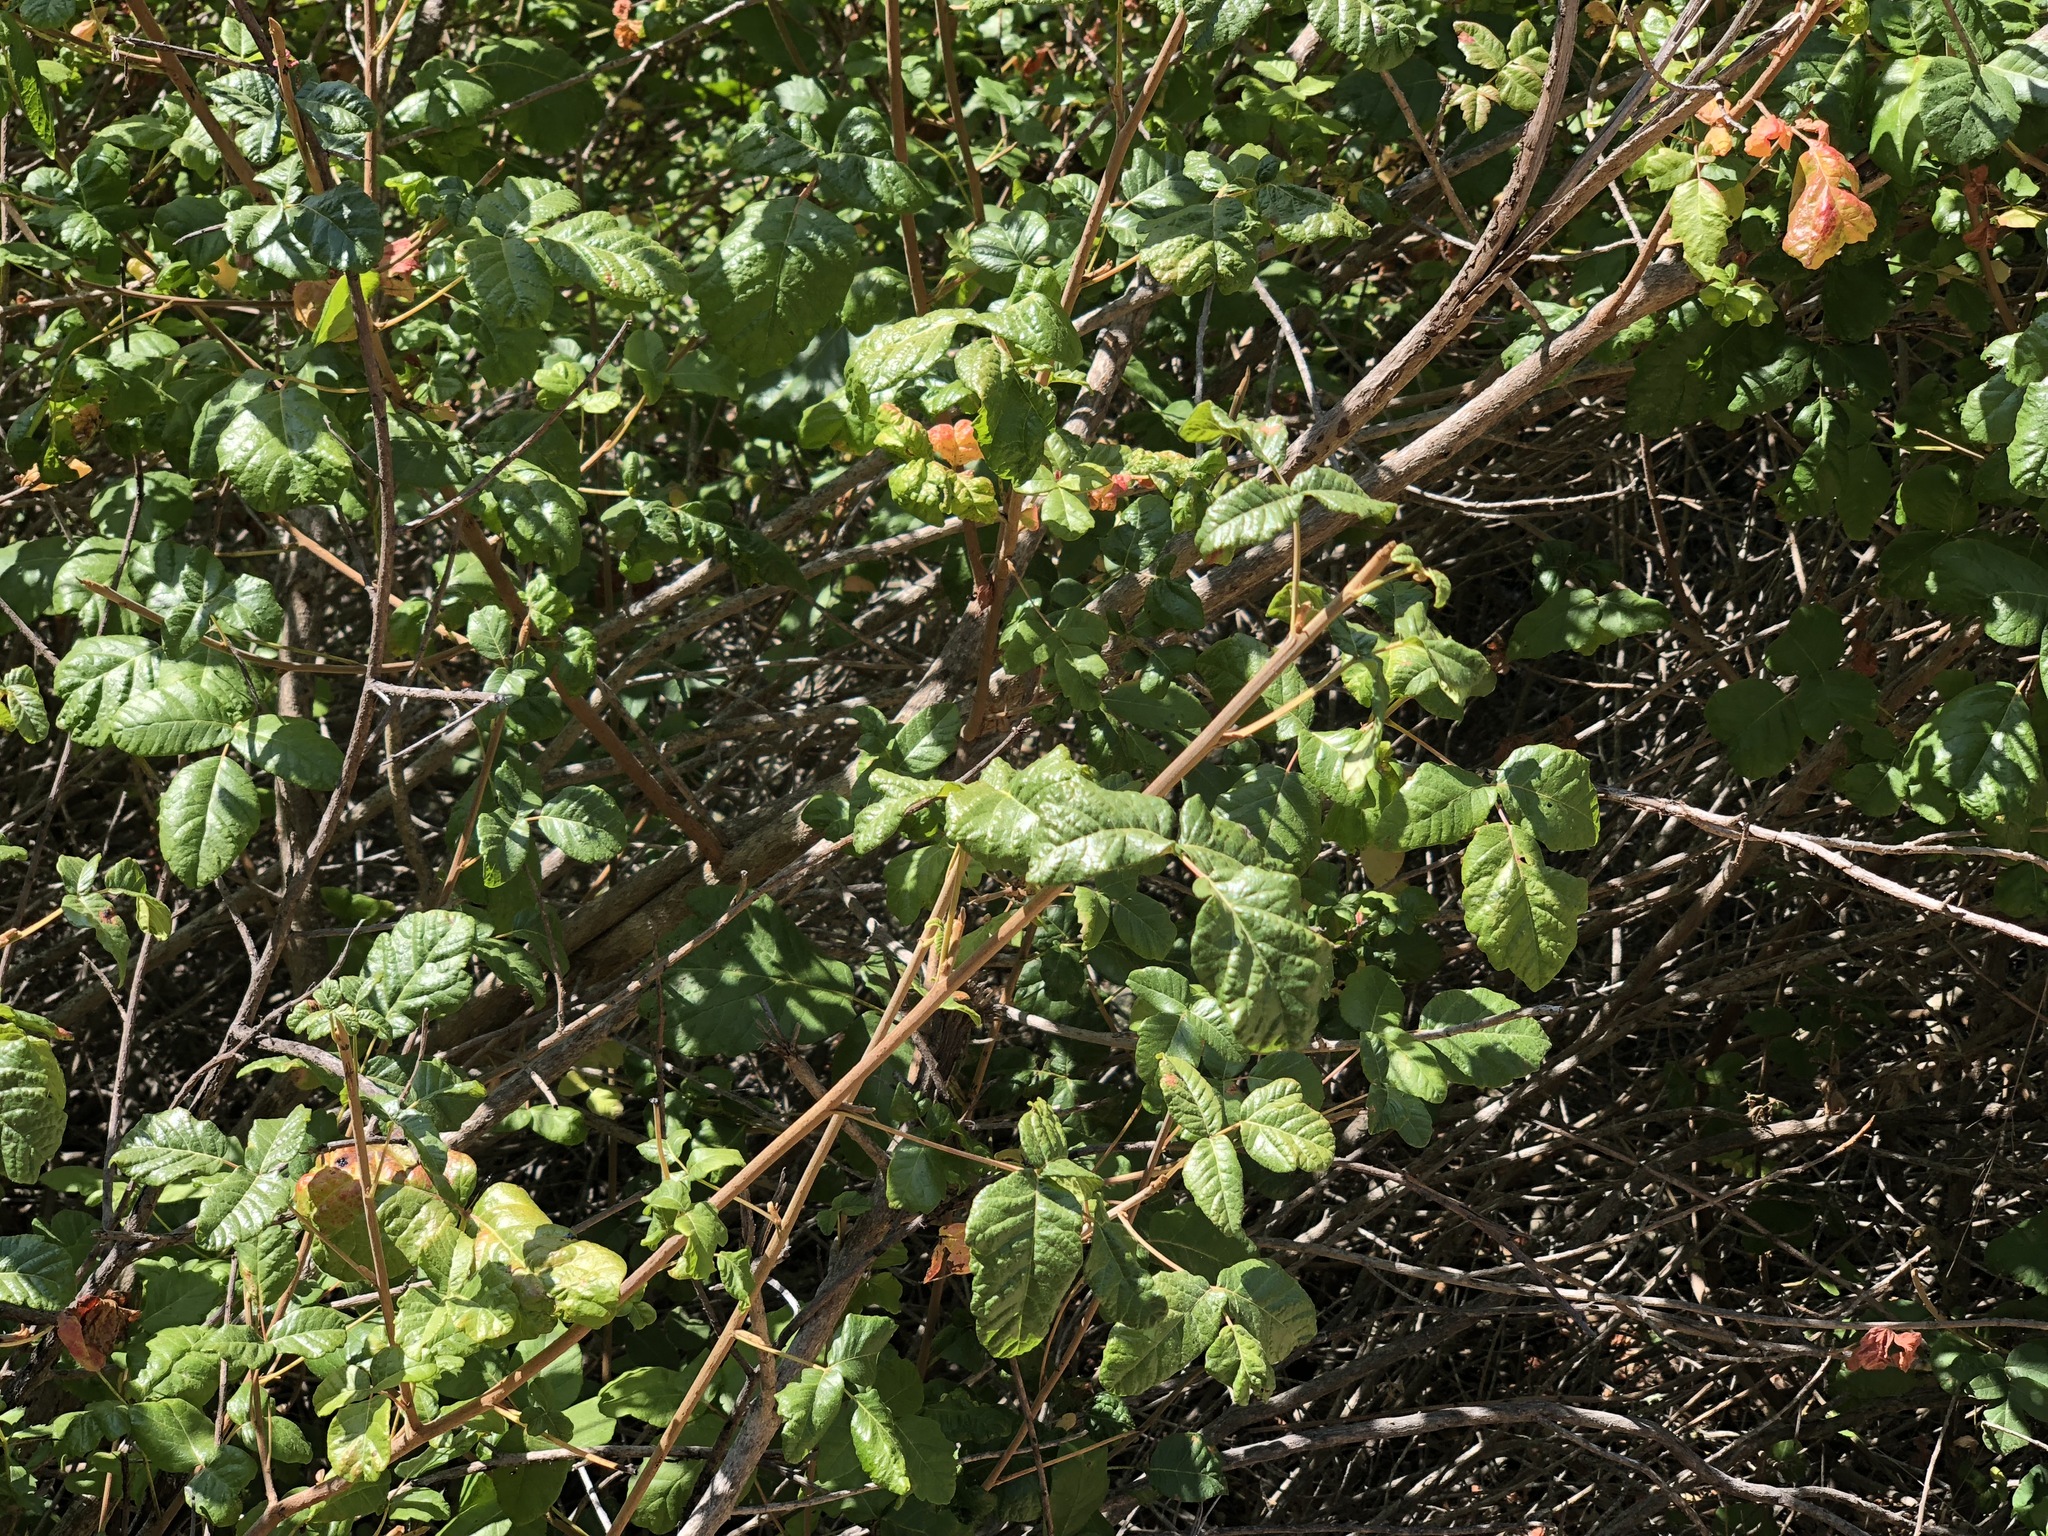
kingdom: Plantae
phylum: Tracheophyta
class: Magnoliopsida
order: Sapindales
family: Anacardiaceae
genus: Toxicodendron
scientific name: Toxicodendron diversilobum
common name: Pacific poison-oak
